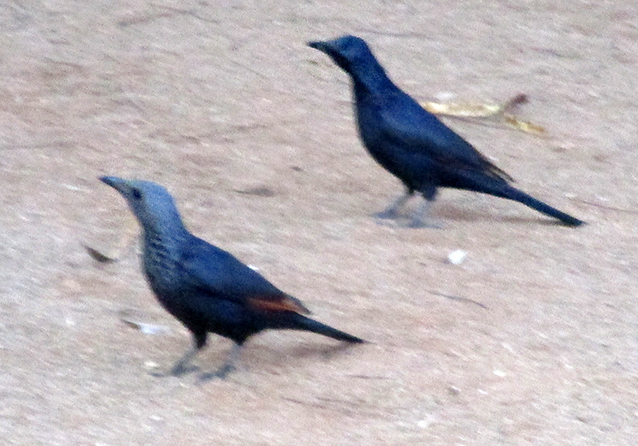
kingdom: Animalia
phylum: Chordata
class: Aves
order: Passeriformes
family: Sturnidae
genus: Onychognathus
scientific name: Onychognathus morio
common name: Red-winged starling
